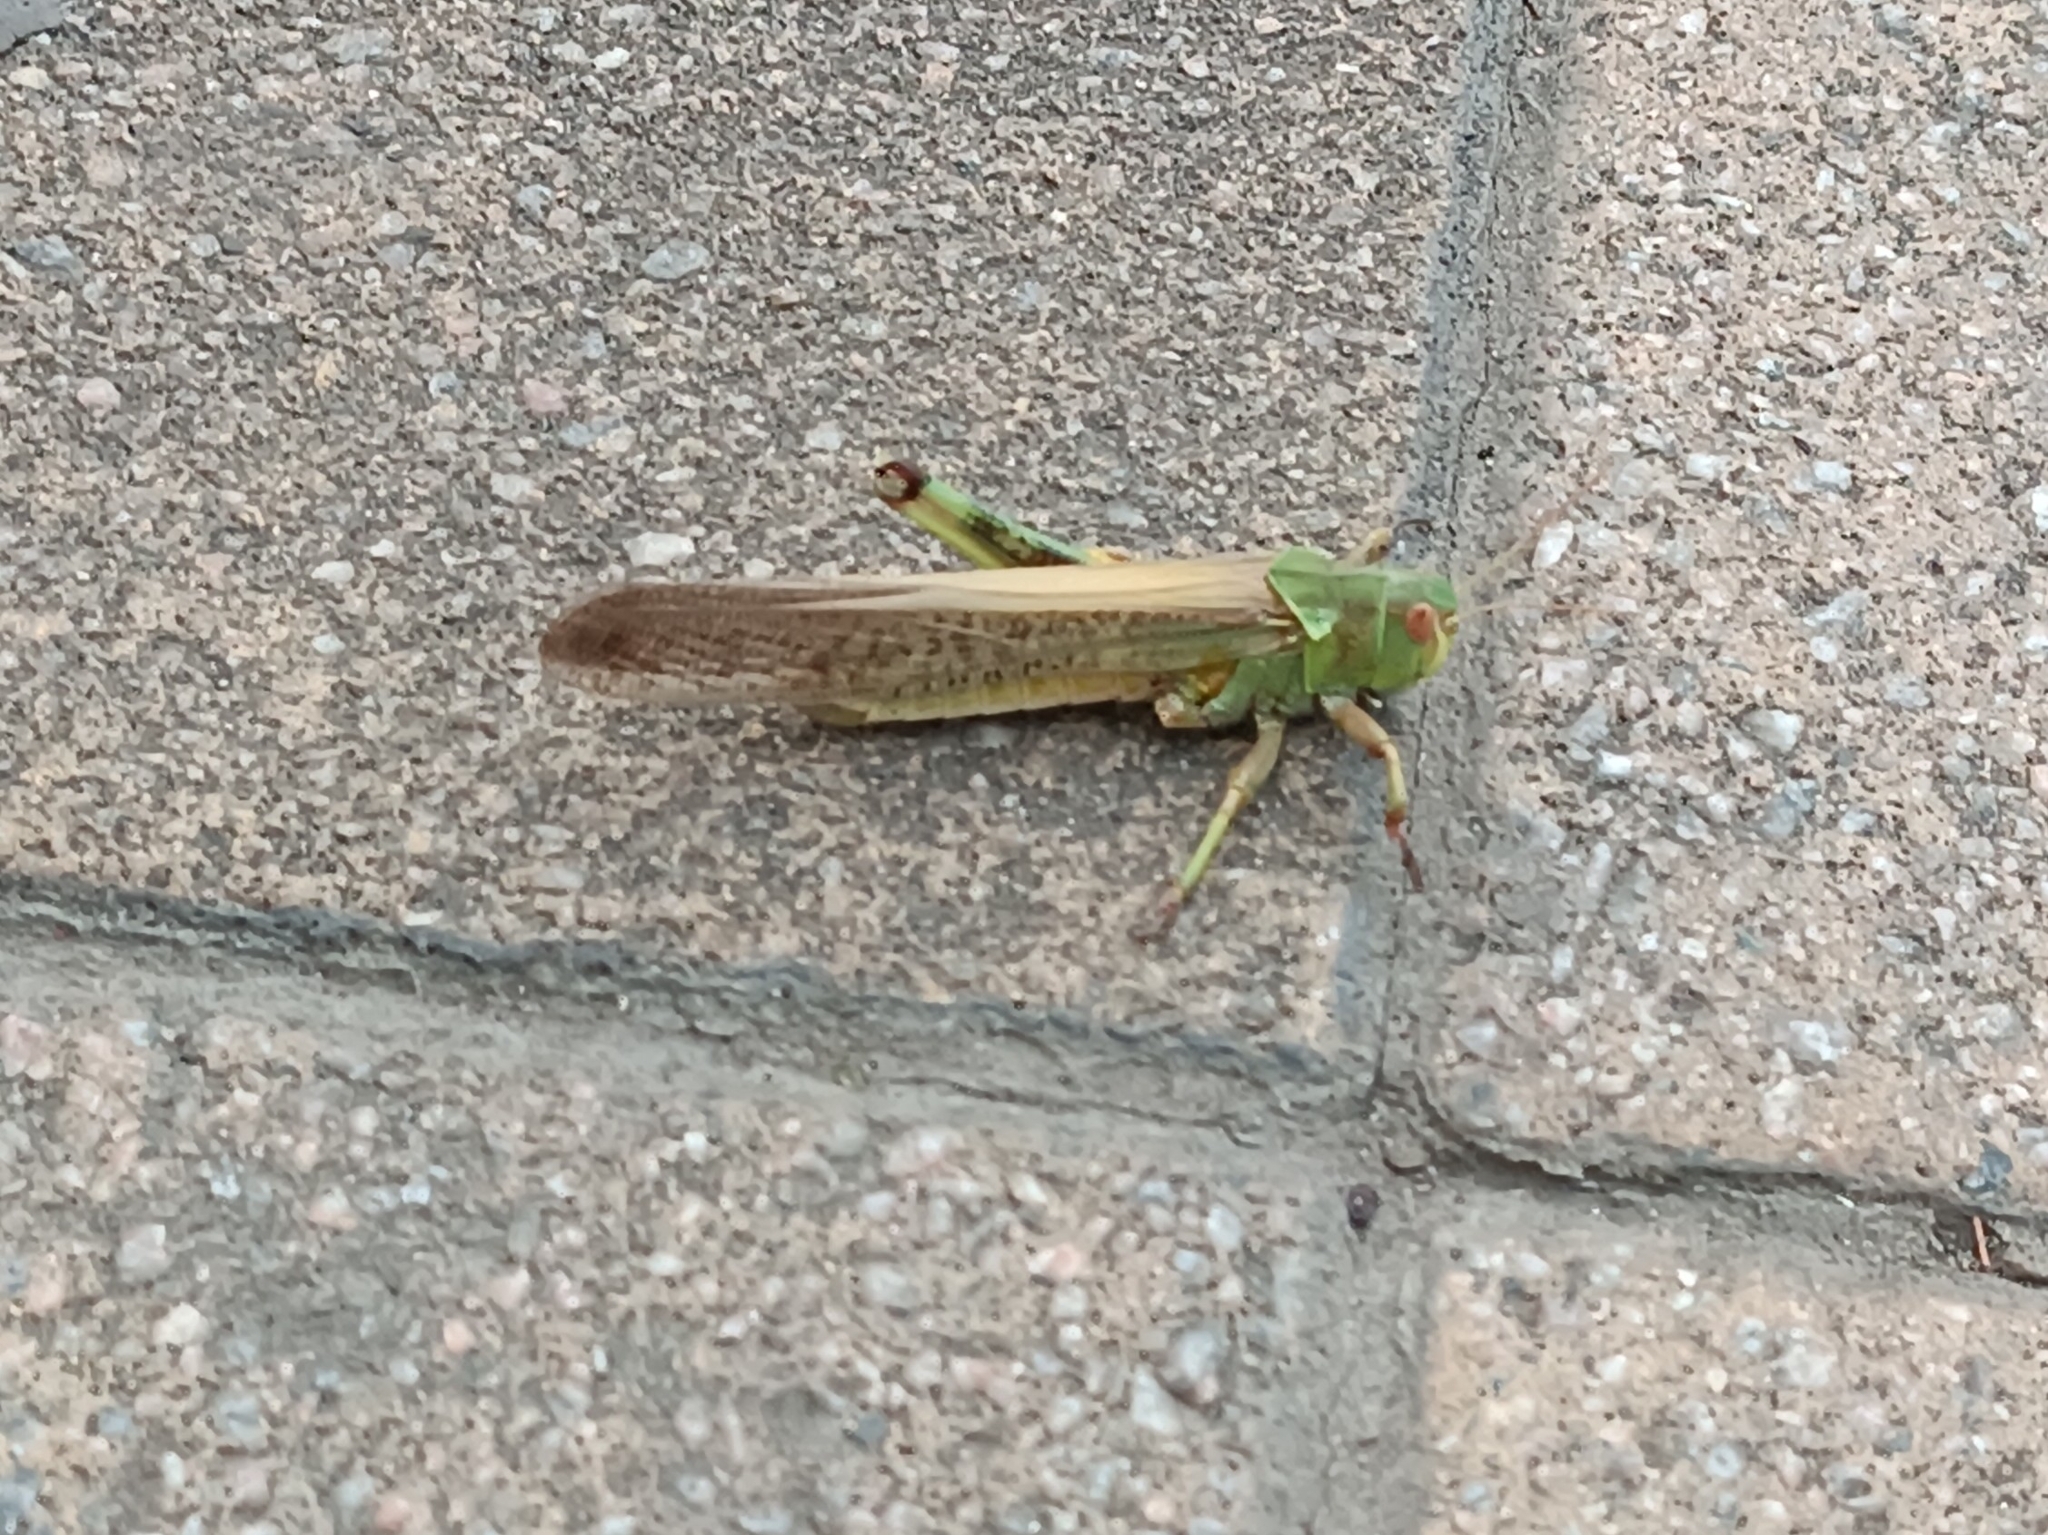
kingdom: Animalia
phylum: Arthropoda
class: Insecta
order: Orthoptera
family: Acrididae
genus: Locusta
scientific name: Locusta migratoria
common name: Migratory locust
